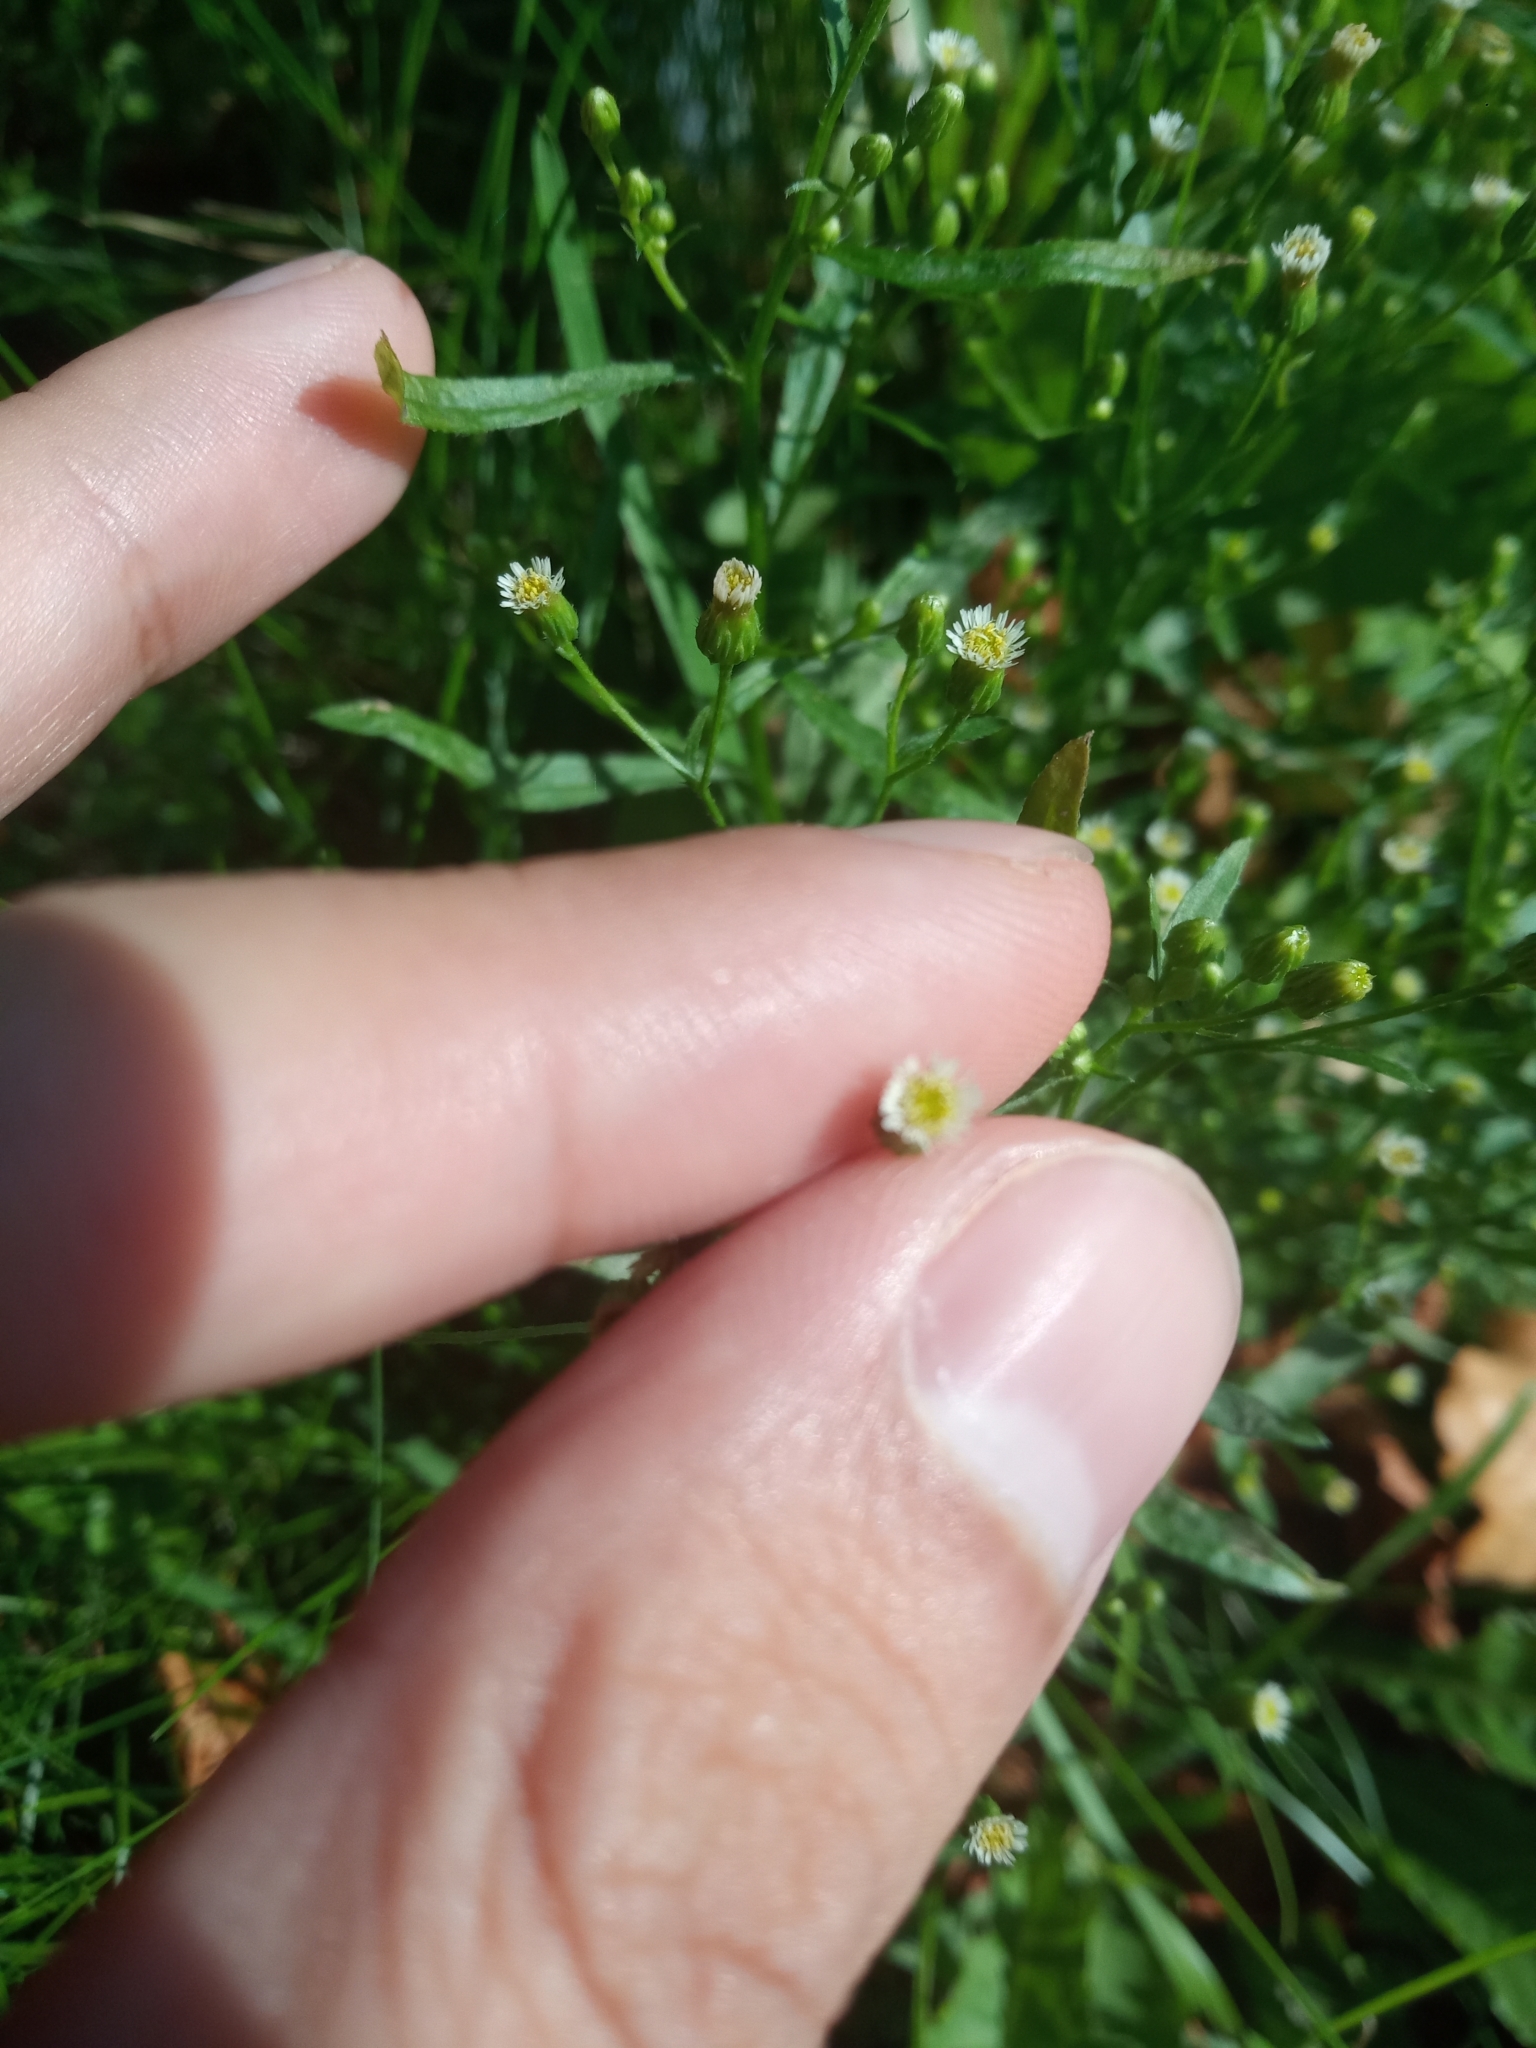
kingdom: Plantae
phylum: Tracheophyta
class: Magnoliopsida
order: Asterales
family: Asteraceae
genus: Erigeron
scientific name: Erigeron canadensis
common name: Canadian fleabane
